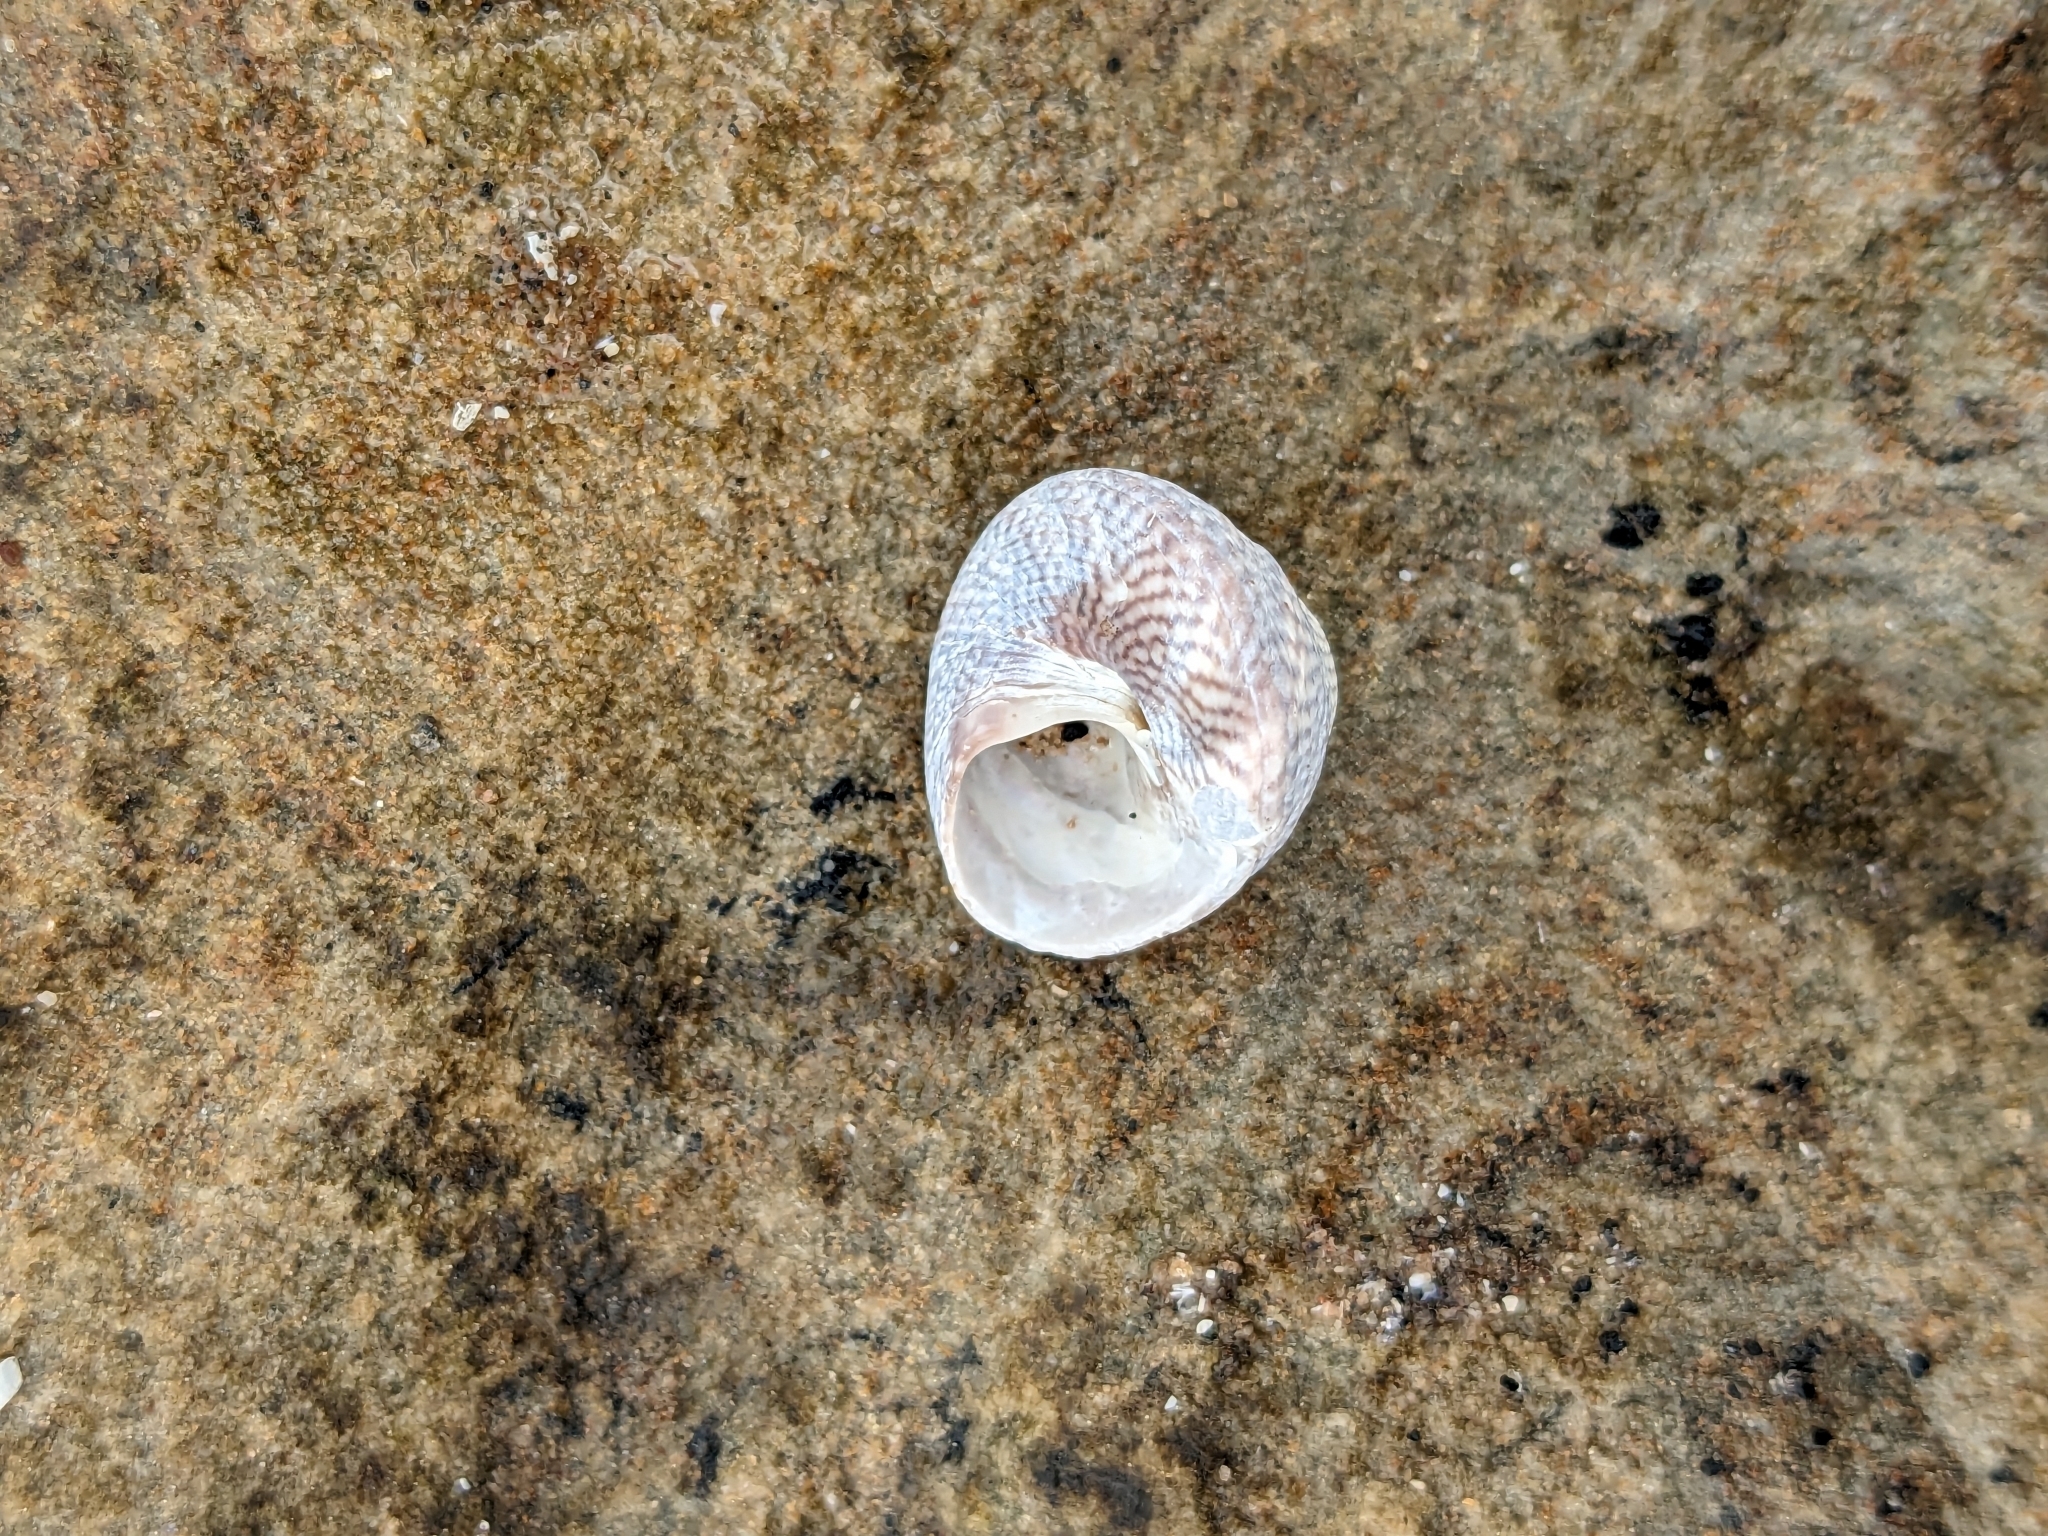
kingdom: Animalia
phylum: Mollusca
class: Gastropoda
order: Trochida
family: Trochidae
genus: Steromphala
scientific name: Steromphala cineraria
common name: Grey top shell
